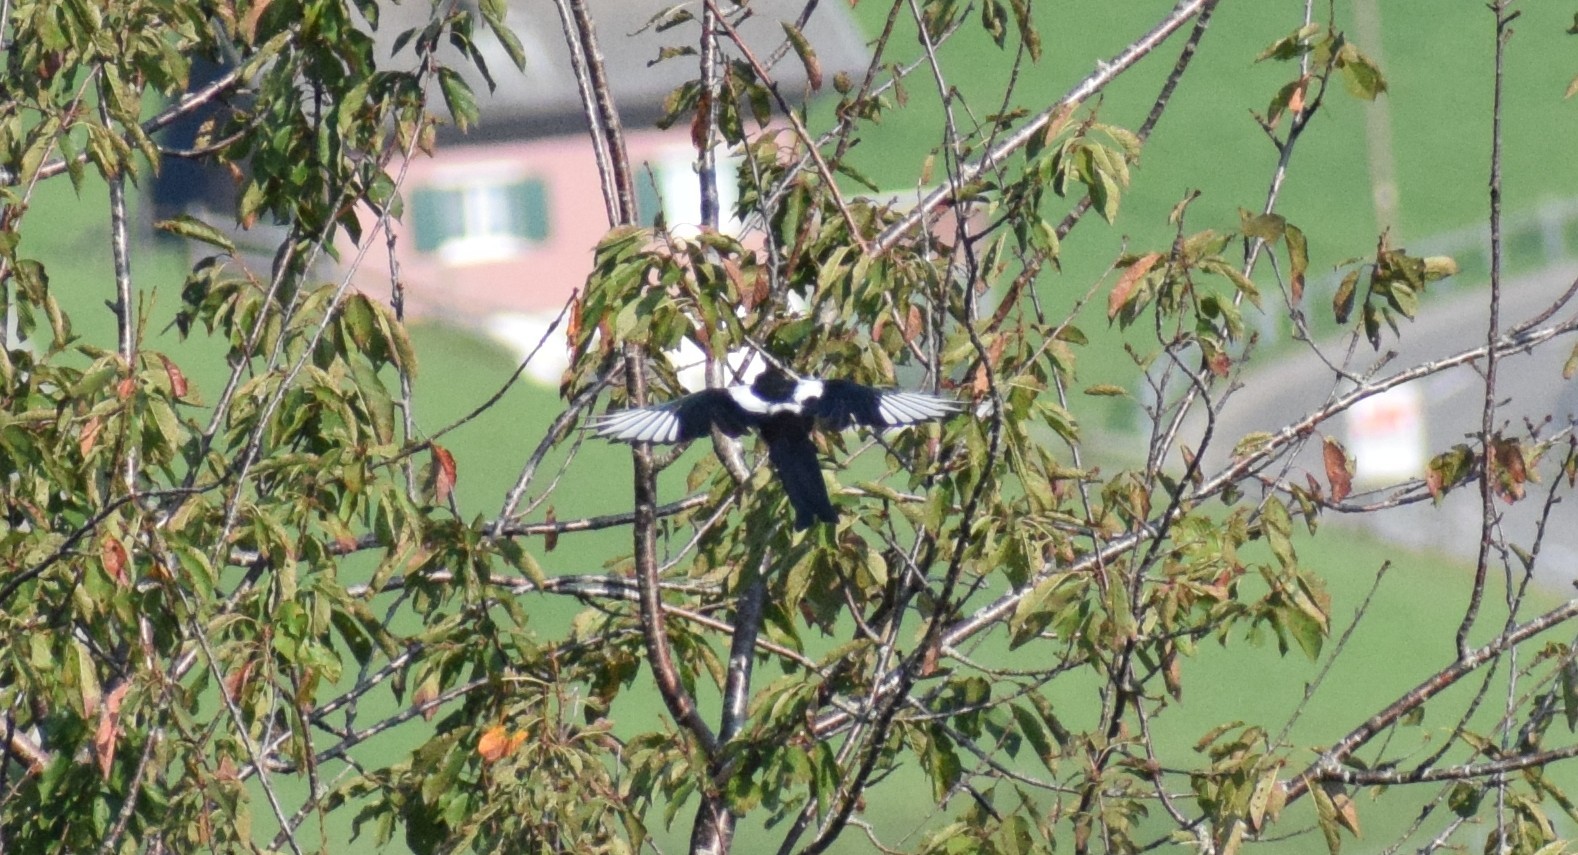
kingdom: Animalia
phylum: Chordata
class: Aves
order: Passeriformes
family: Corvidae
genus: Pica
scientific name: Pica pica
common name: Eurasian magpie
